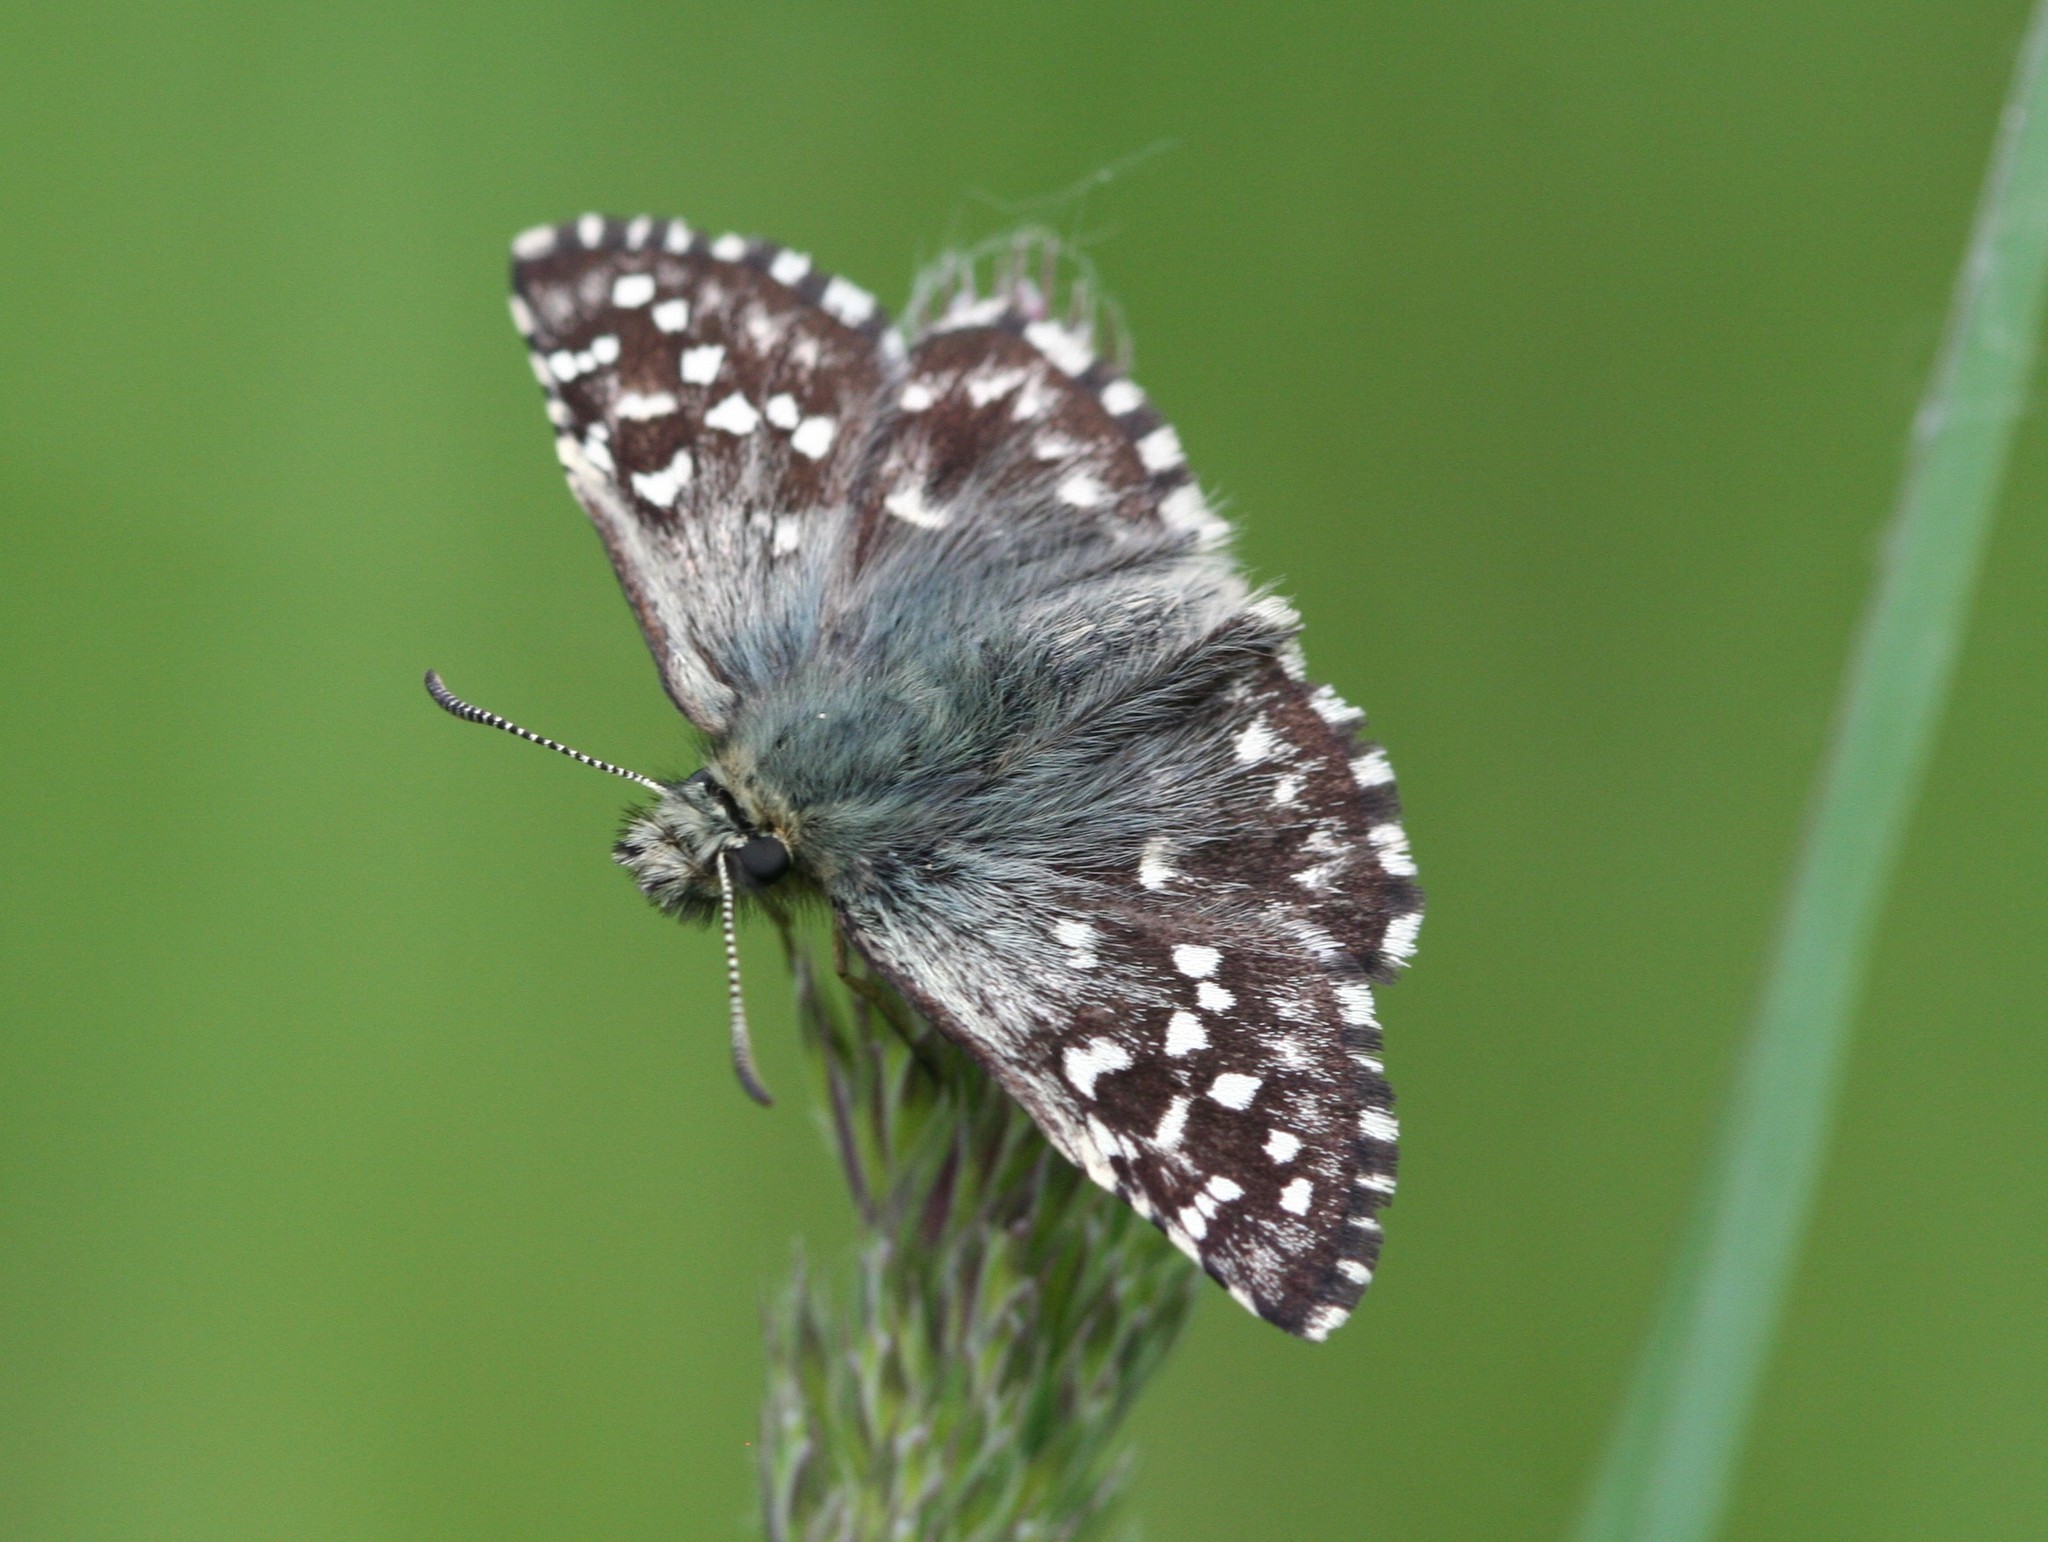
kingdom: Animalia
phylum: Arthropoda
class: Insecta
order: Lepidoptera
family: Hesperiidae
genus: Pyrgus
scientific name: Pyrgus malvae
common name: Grizzled skipper
